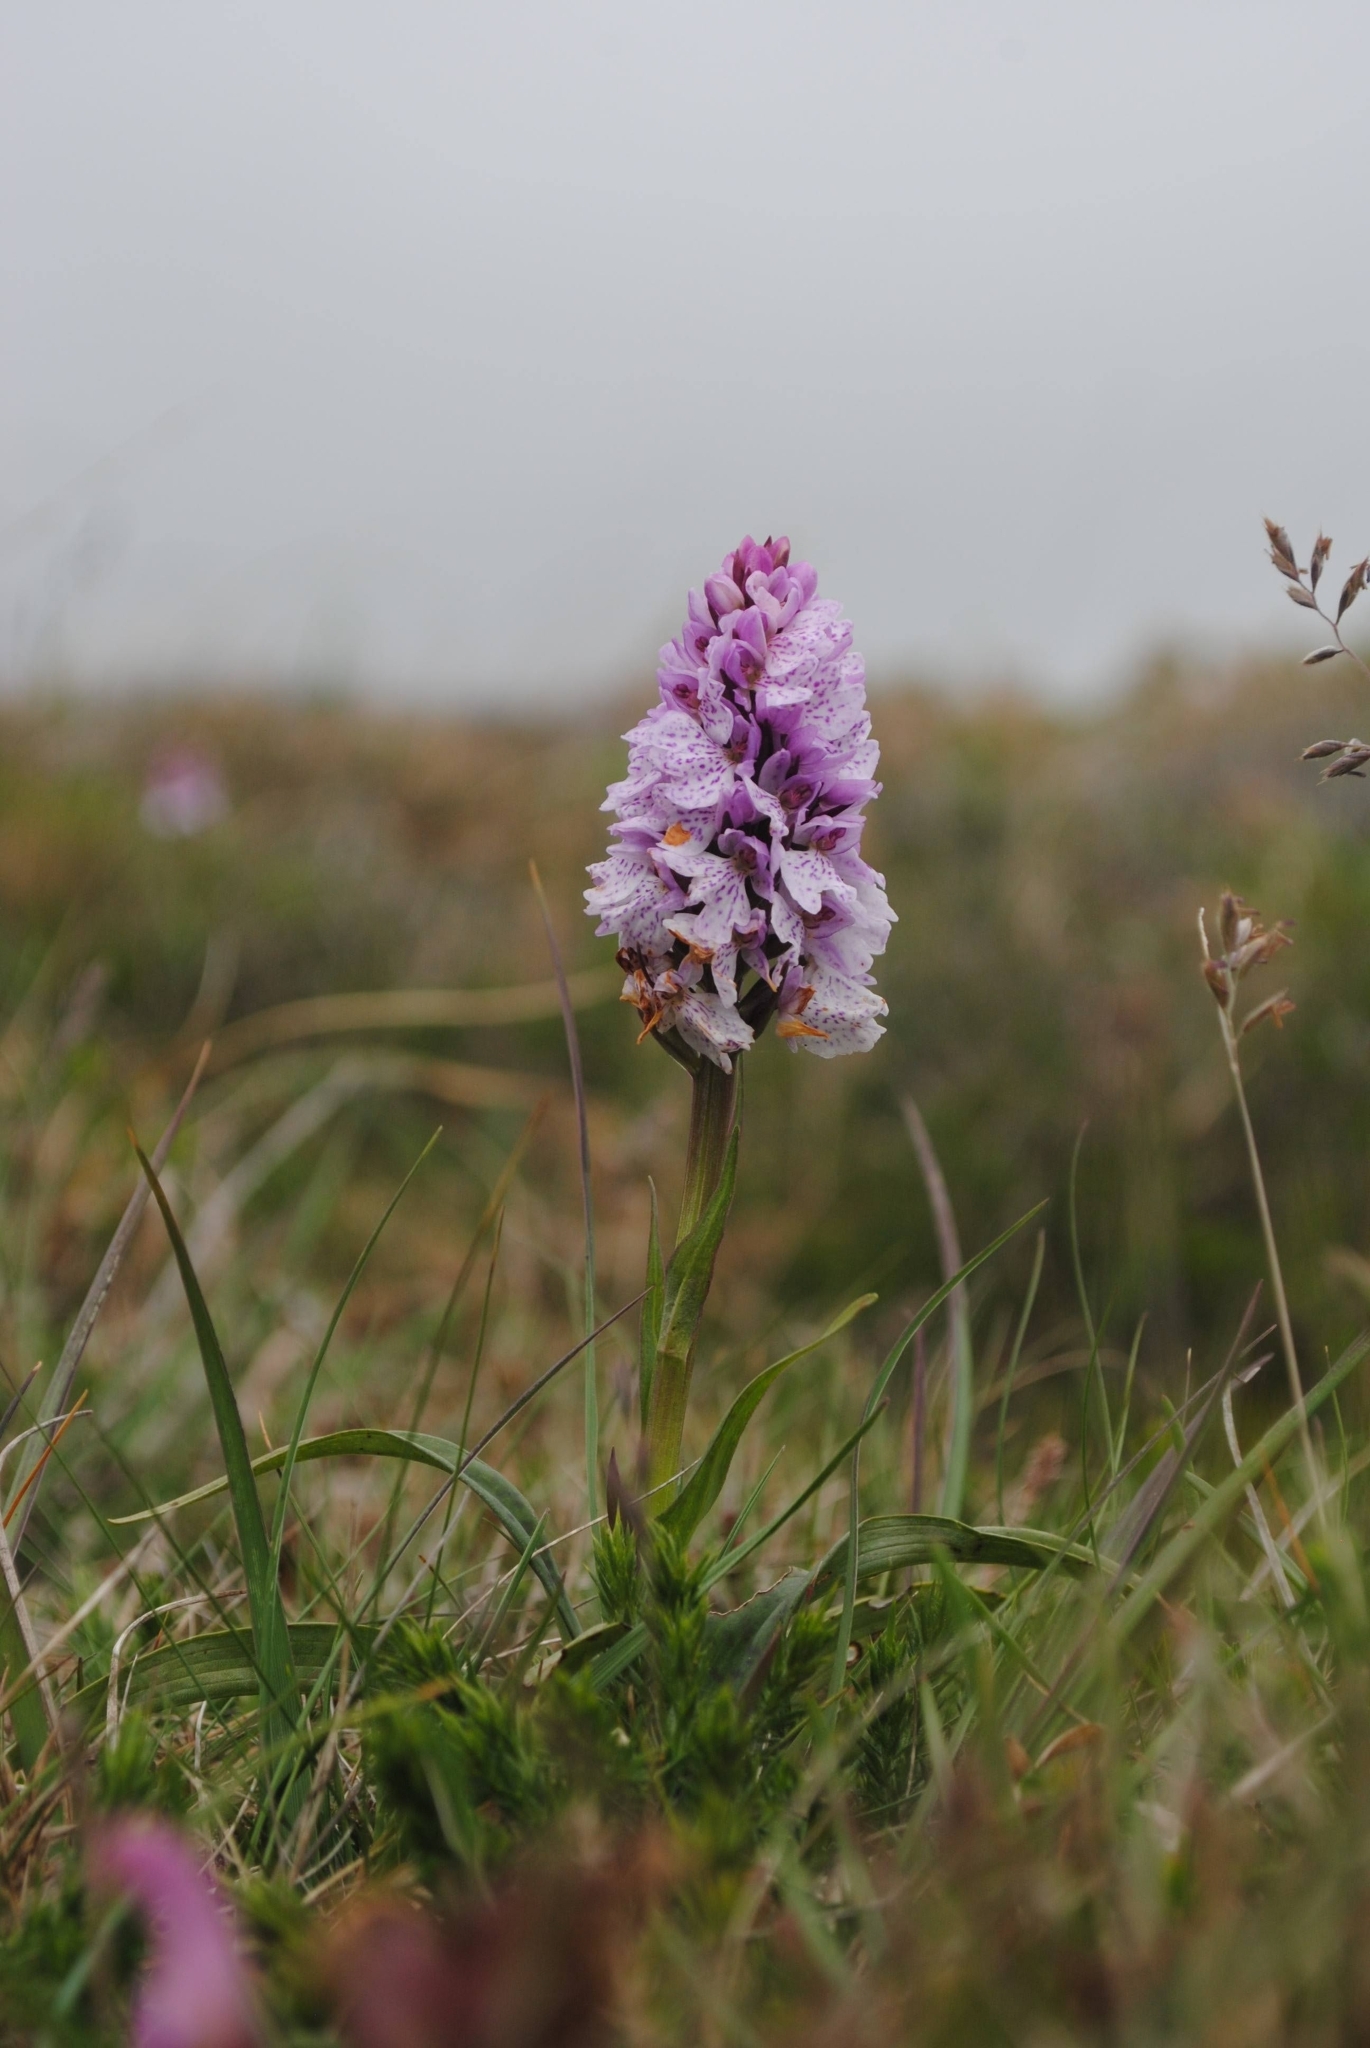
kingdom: Plantae
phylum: Tracheophyta
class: Liliopsida
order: Asparagales
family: Orchidaceae
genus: Dactylorhiza
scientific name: Dactylorhiza maculata
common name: Heath spotted-orchid
